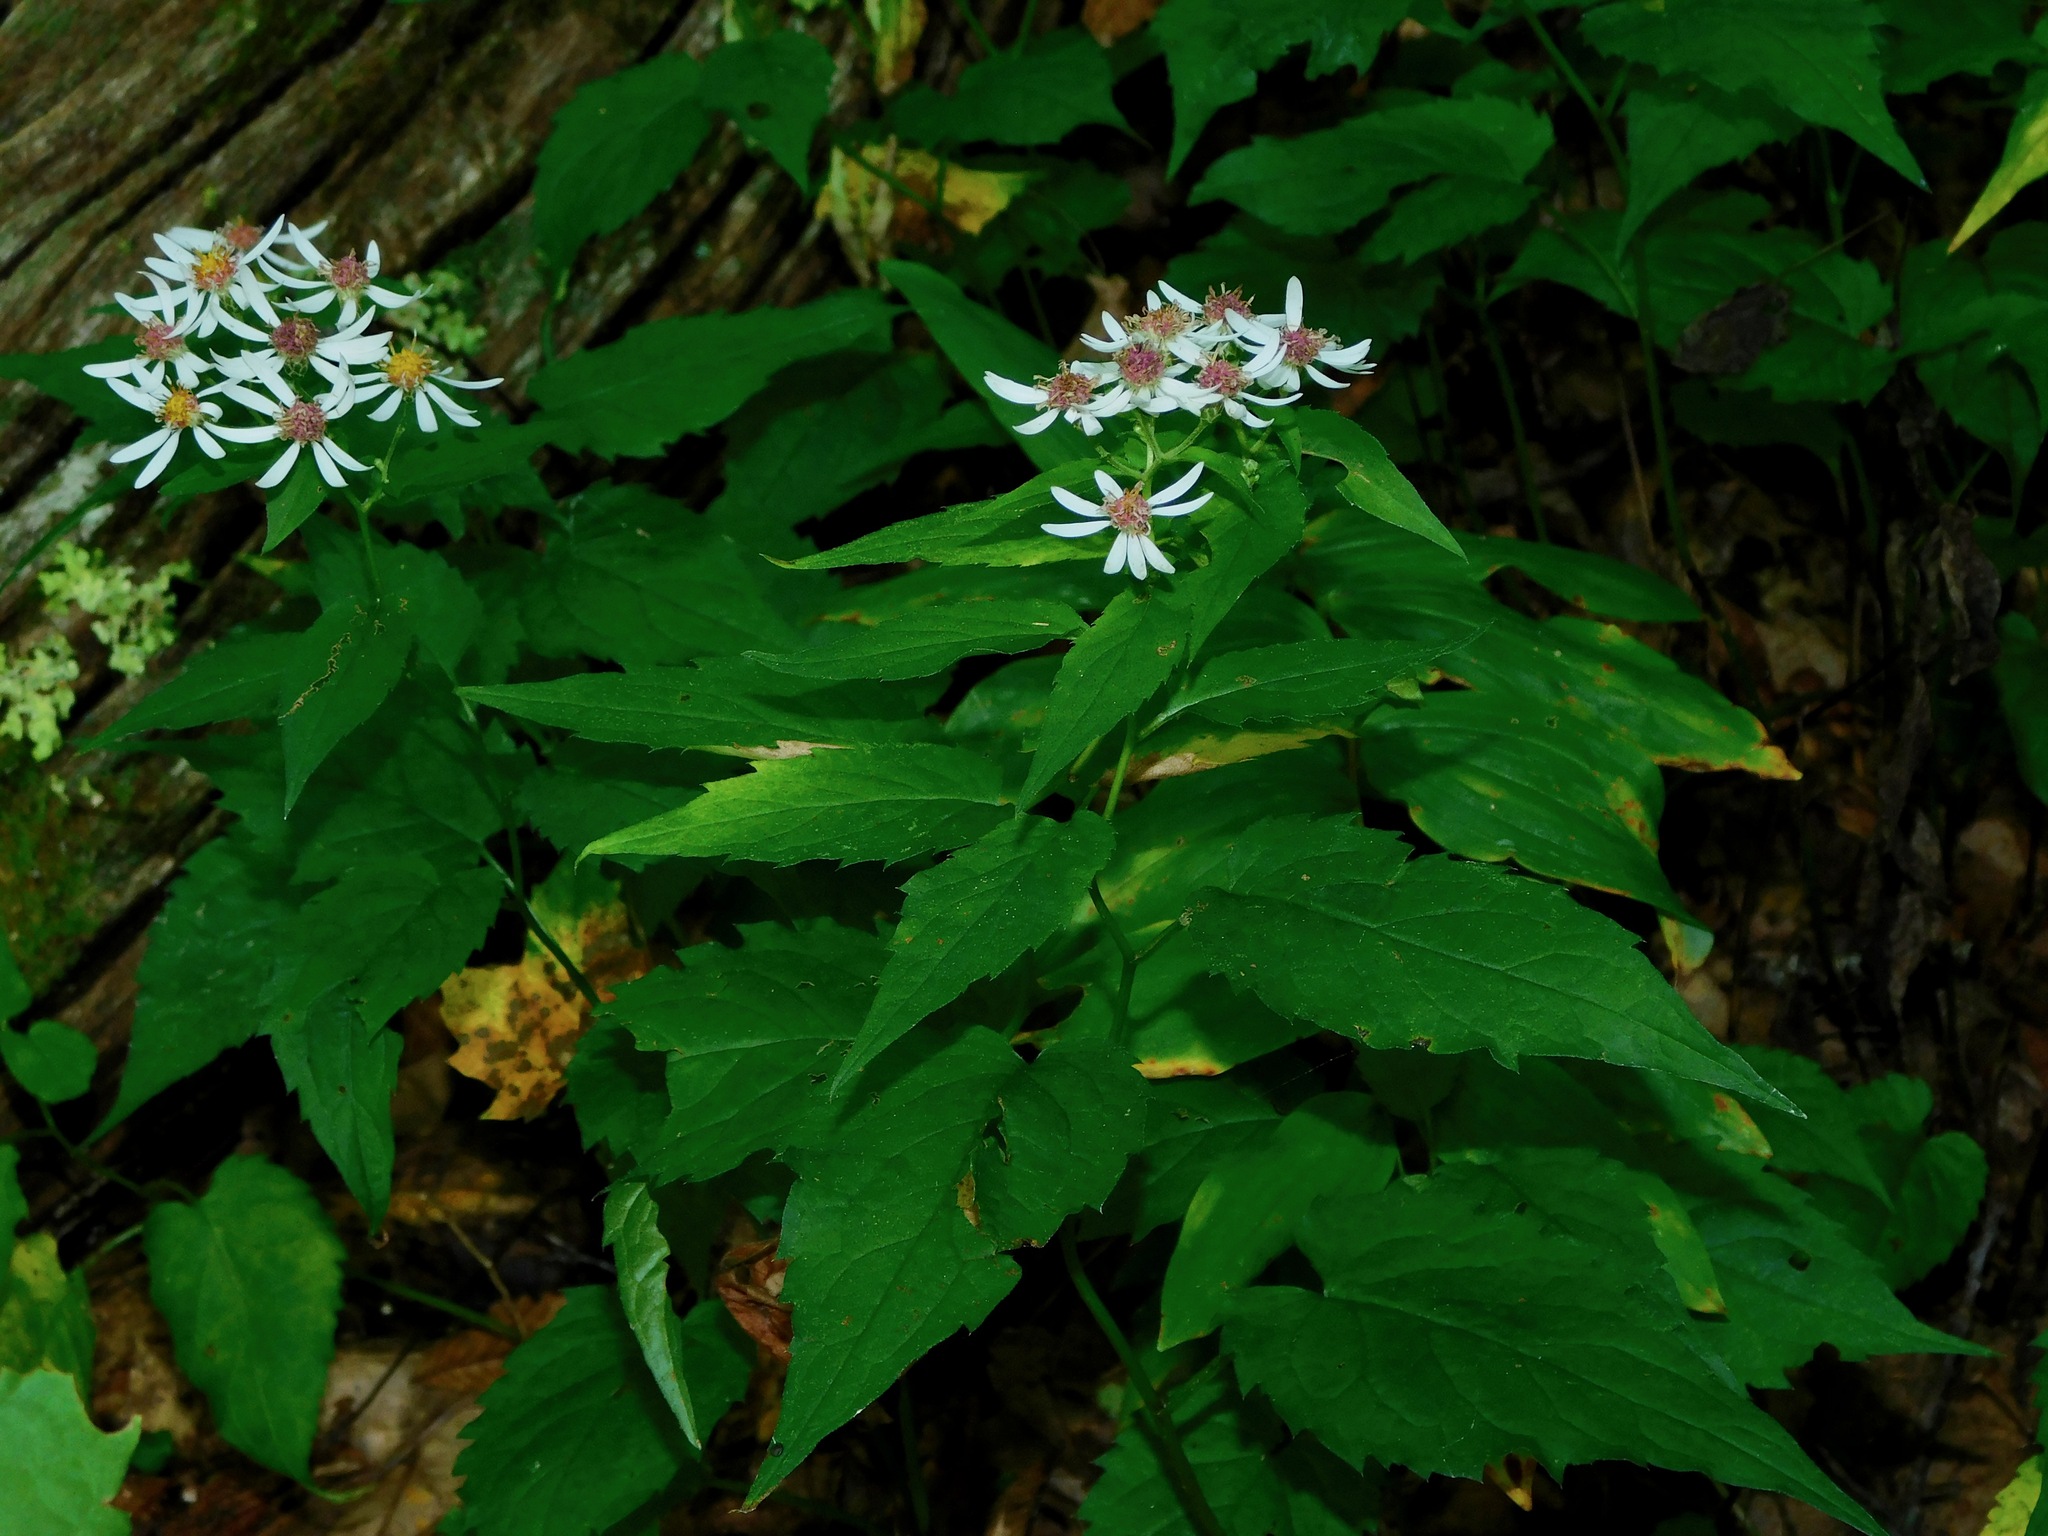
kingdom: Plantae
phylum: Tracheophyta
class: Magnoliopsida
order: Asterales
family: Asteraceae
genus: Eurybia
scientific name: Eurybia divaricata
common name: White wood aster
